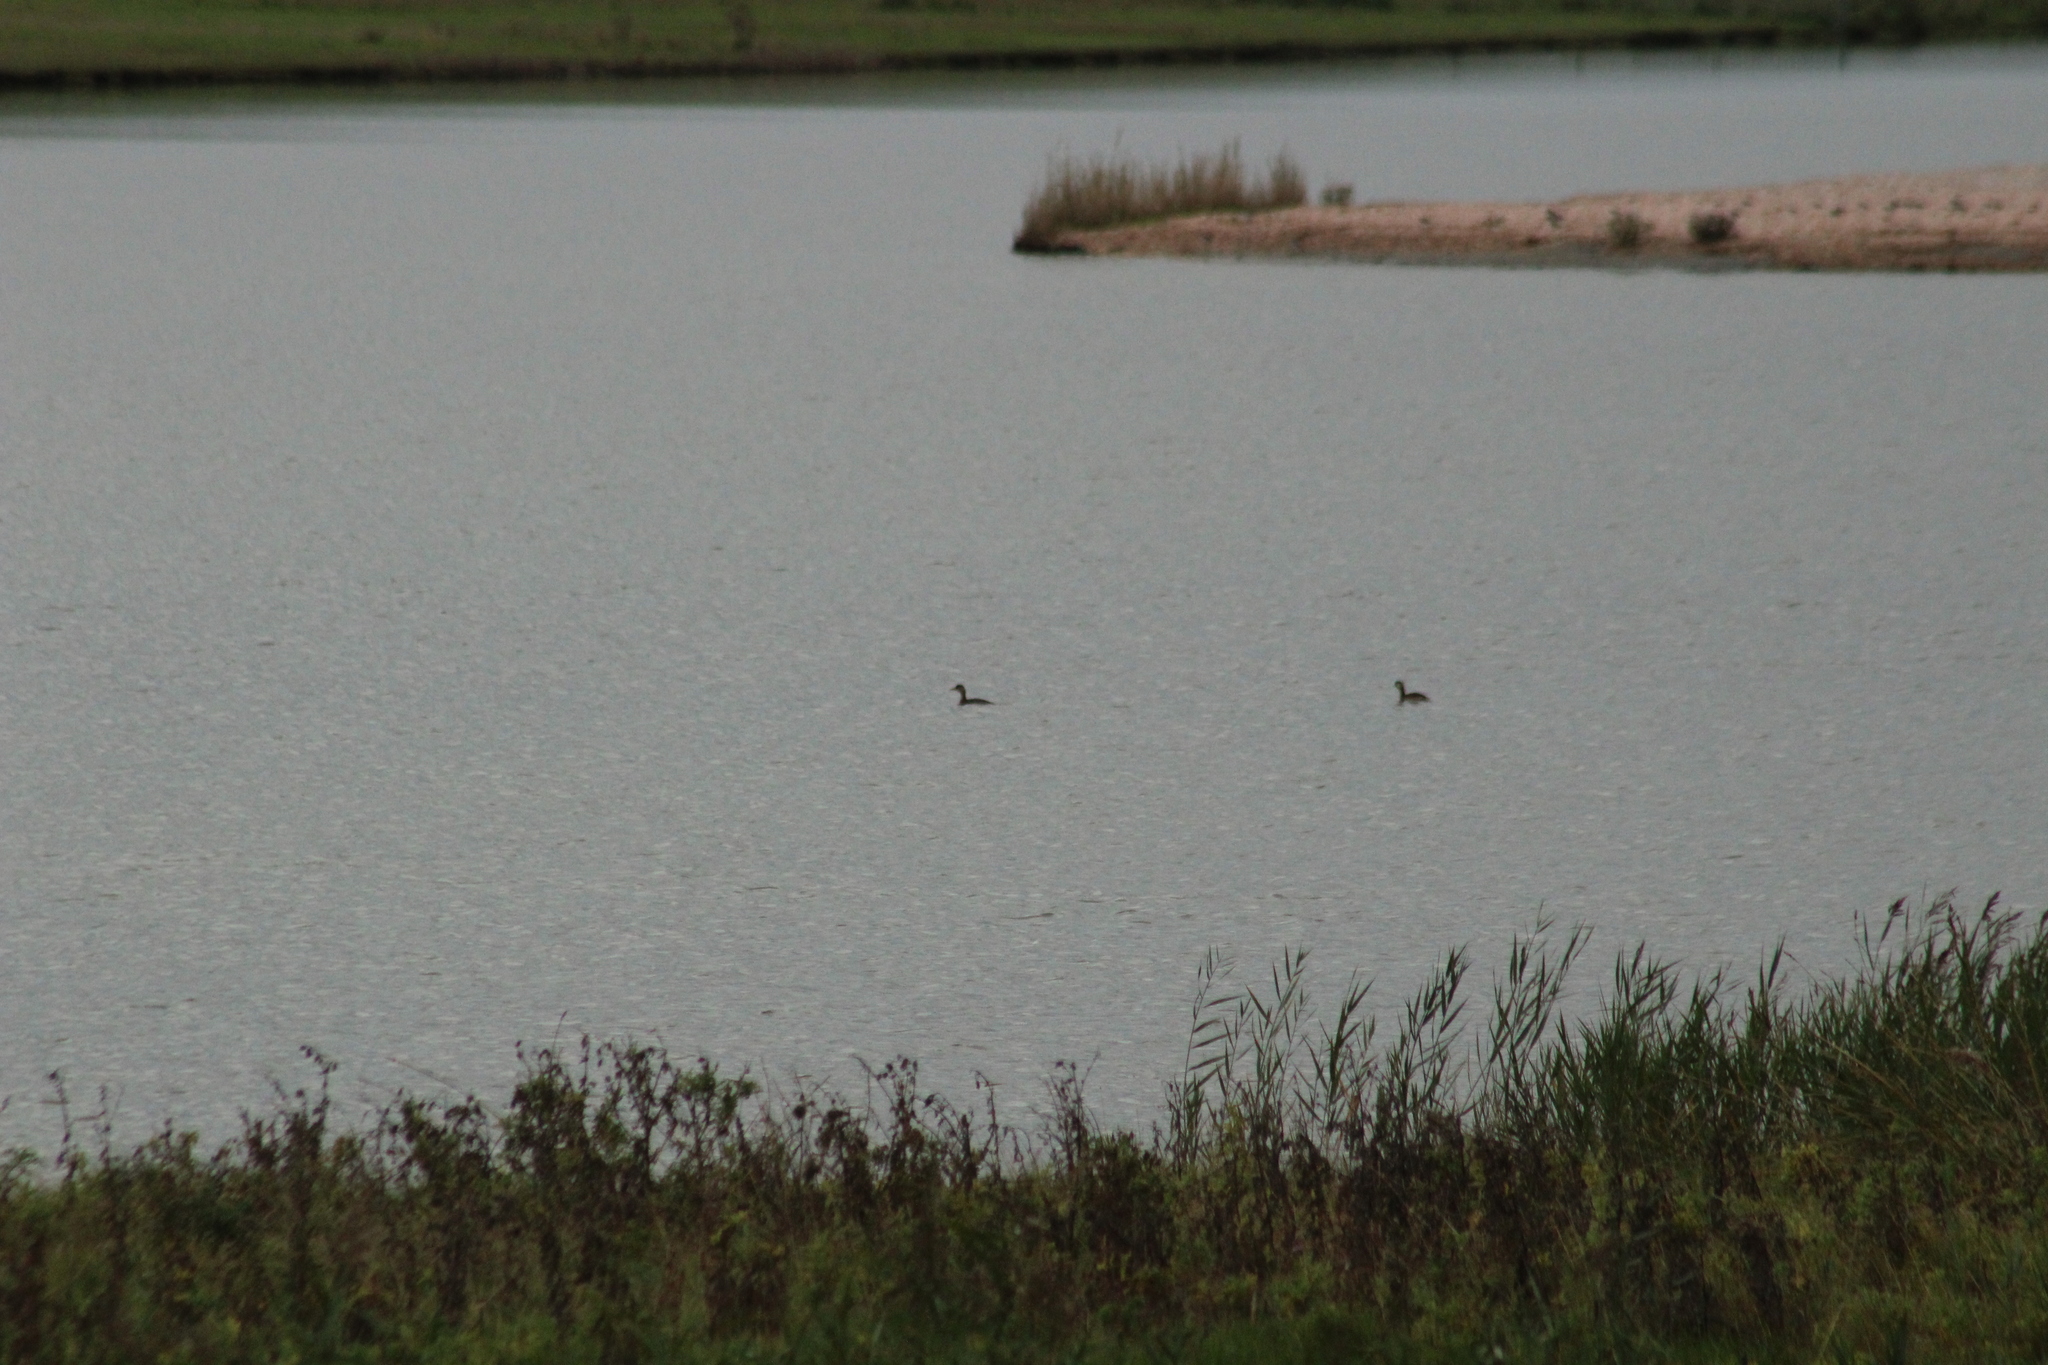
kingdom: Animalia
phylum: Chordata
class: Aves
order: Podicipediformes
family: Podicipedidae
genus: Tachybaptus
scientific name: Tachybaptus ruficollis
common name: Little grebe
